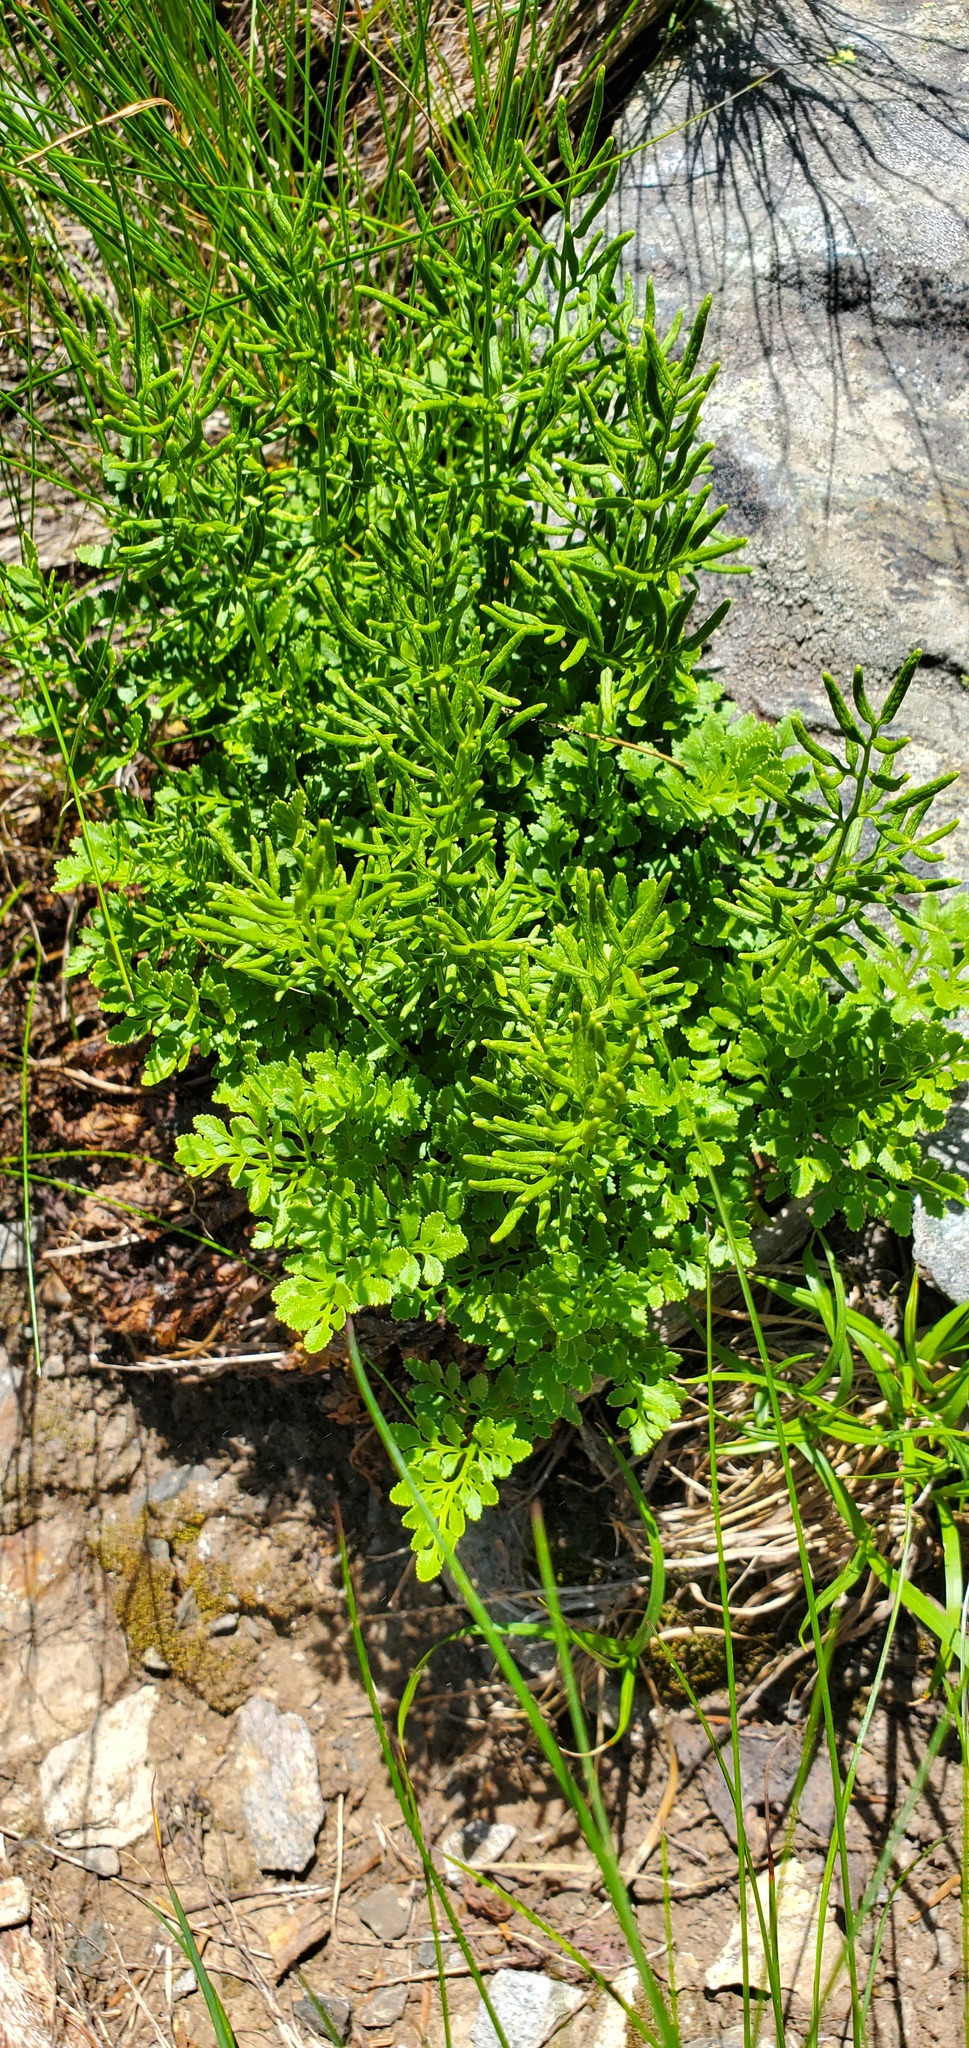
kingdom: Plantae
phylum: Tracheophyta
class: Polypodiopsida
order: Polypodiales
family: Pteridaceae
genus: Cryptogramma
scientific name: Cryptogramma acrostichoides
